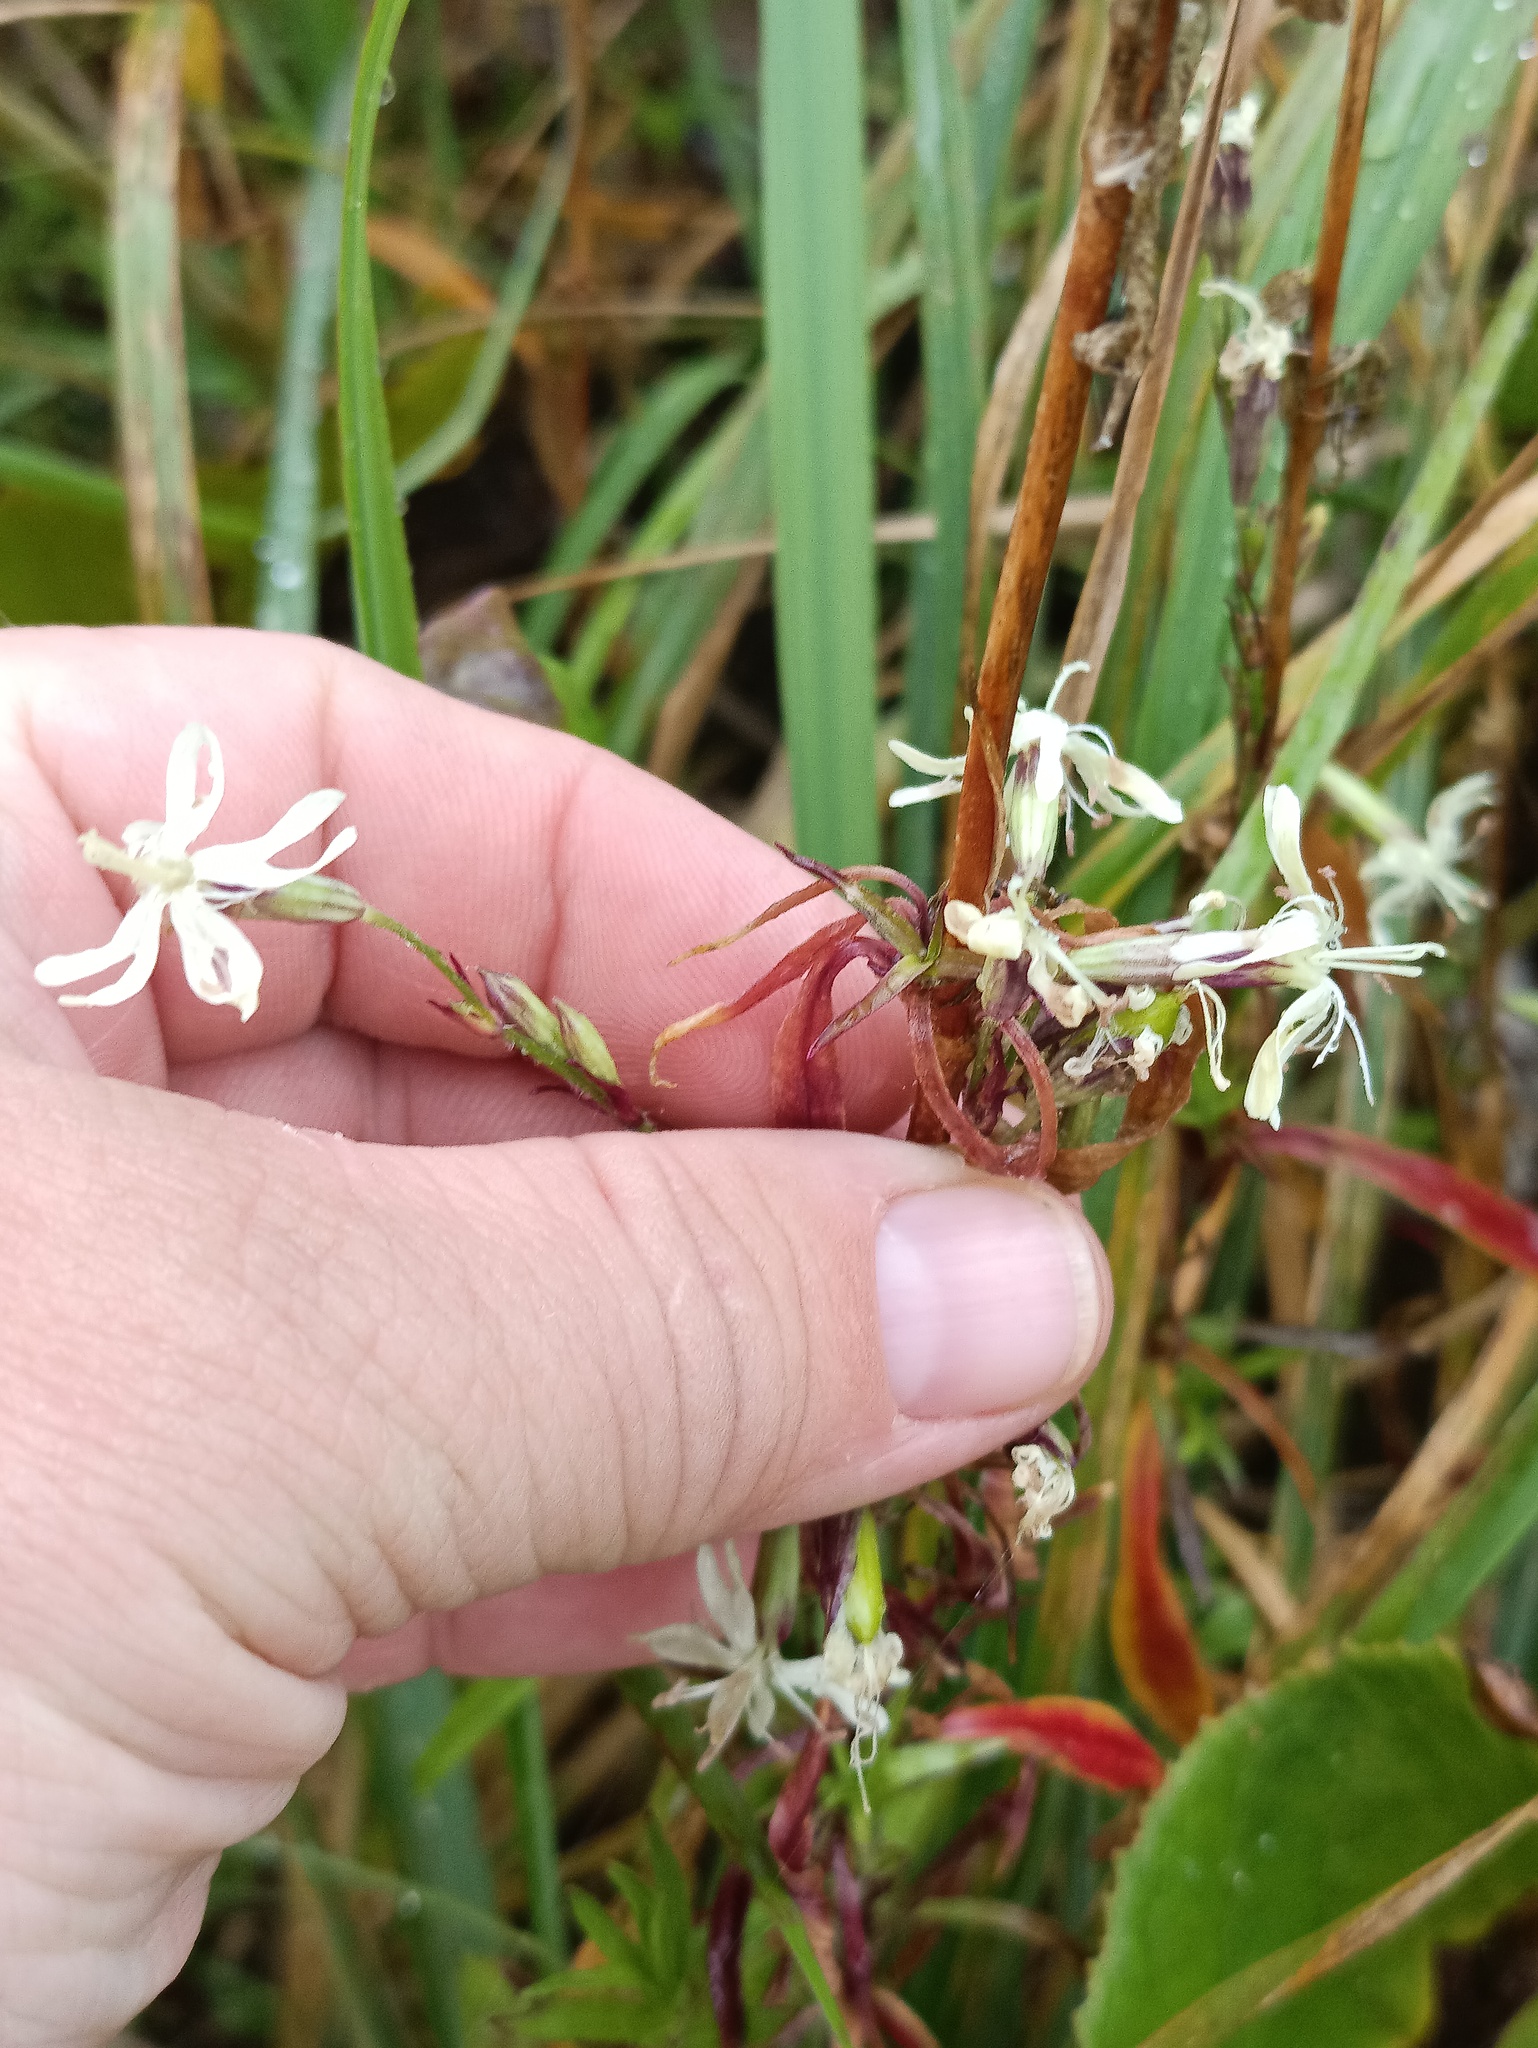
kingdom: Plantae
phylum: Tracheophyta
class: Magnoliopsida
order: Caryophyllales
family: Caryophyllaceae
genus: Silene
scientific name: Silene tatarica
